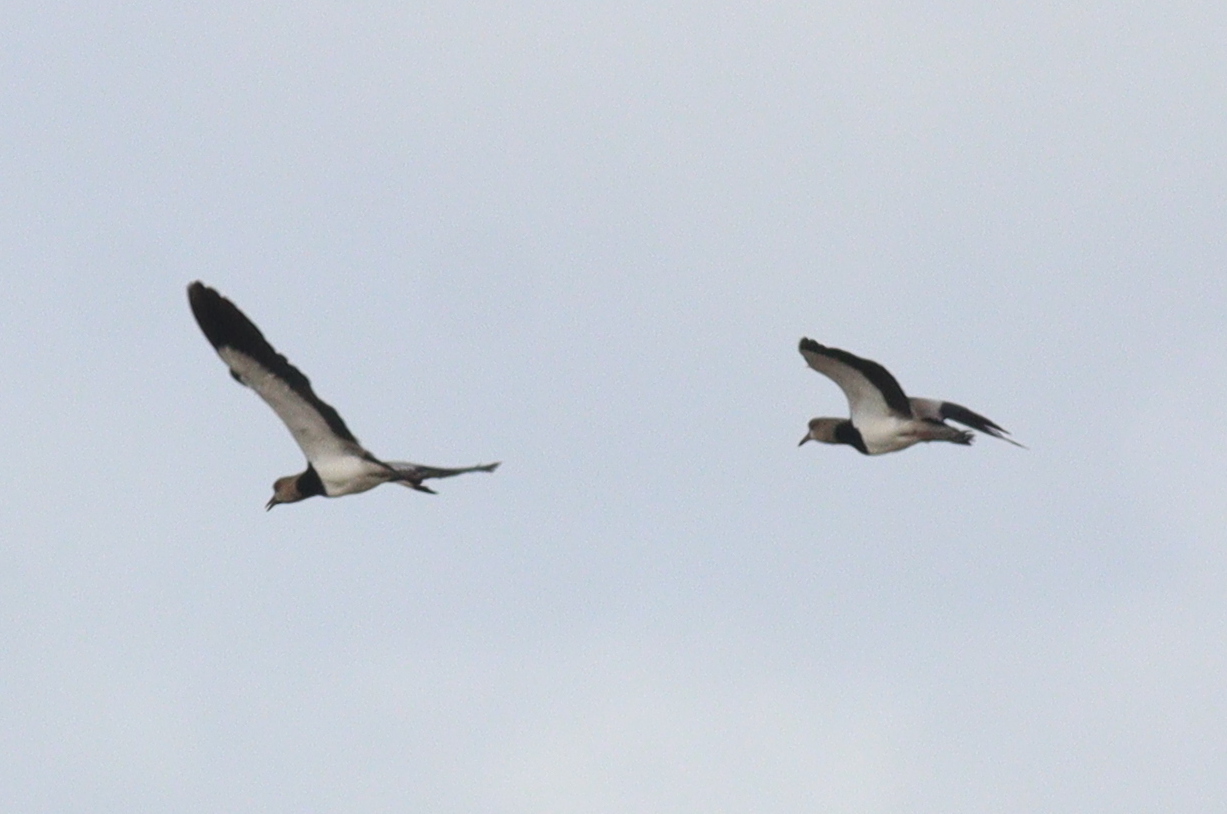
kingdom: Animalia
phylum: Chordata
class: Aves
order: Charadriiformes
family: Charadriidae
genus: Vanellus
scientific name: Vanellus chilensis
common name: Southern lapwing
